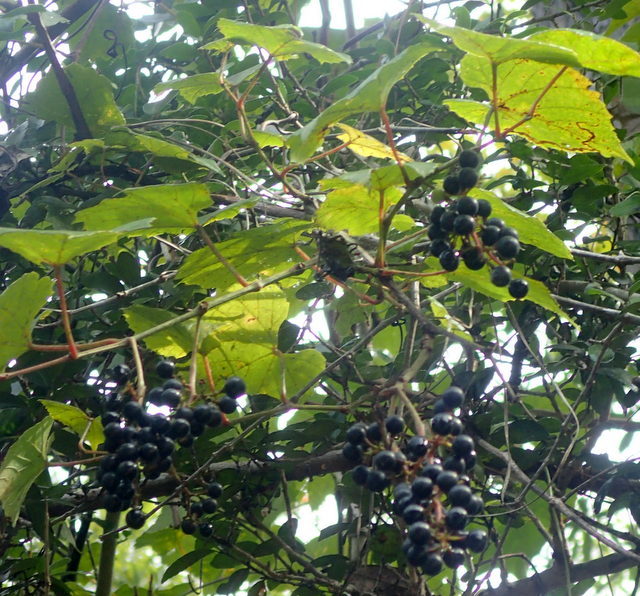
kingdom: Plantae
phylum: Tracheophyta
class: Magnoliopsida
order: Vitales
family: Vitaceae
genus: Vitis
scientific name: Vitis vulpina
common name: Frost grape
